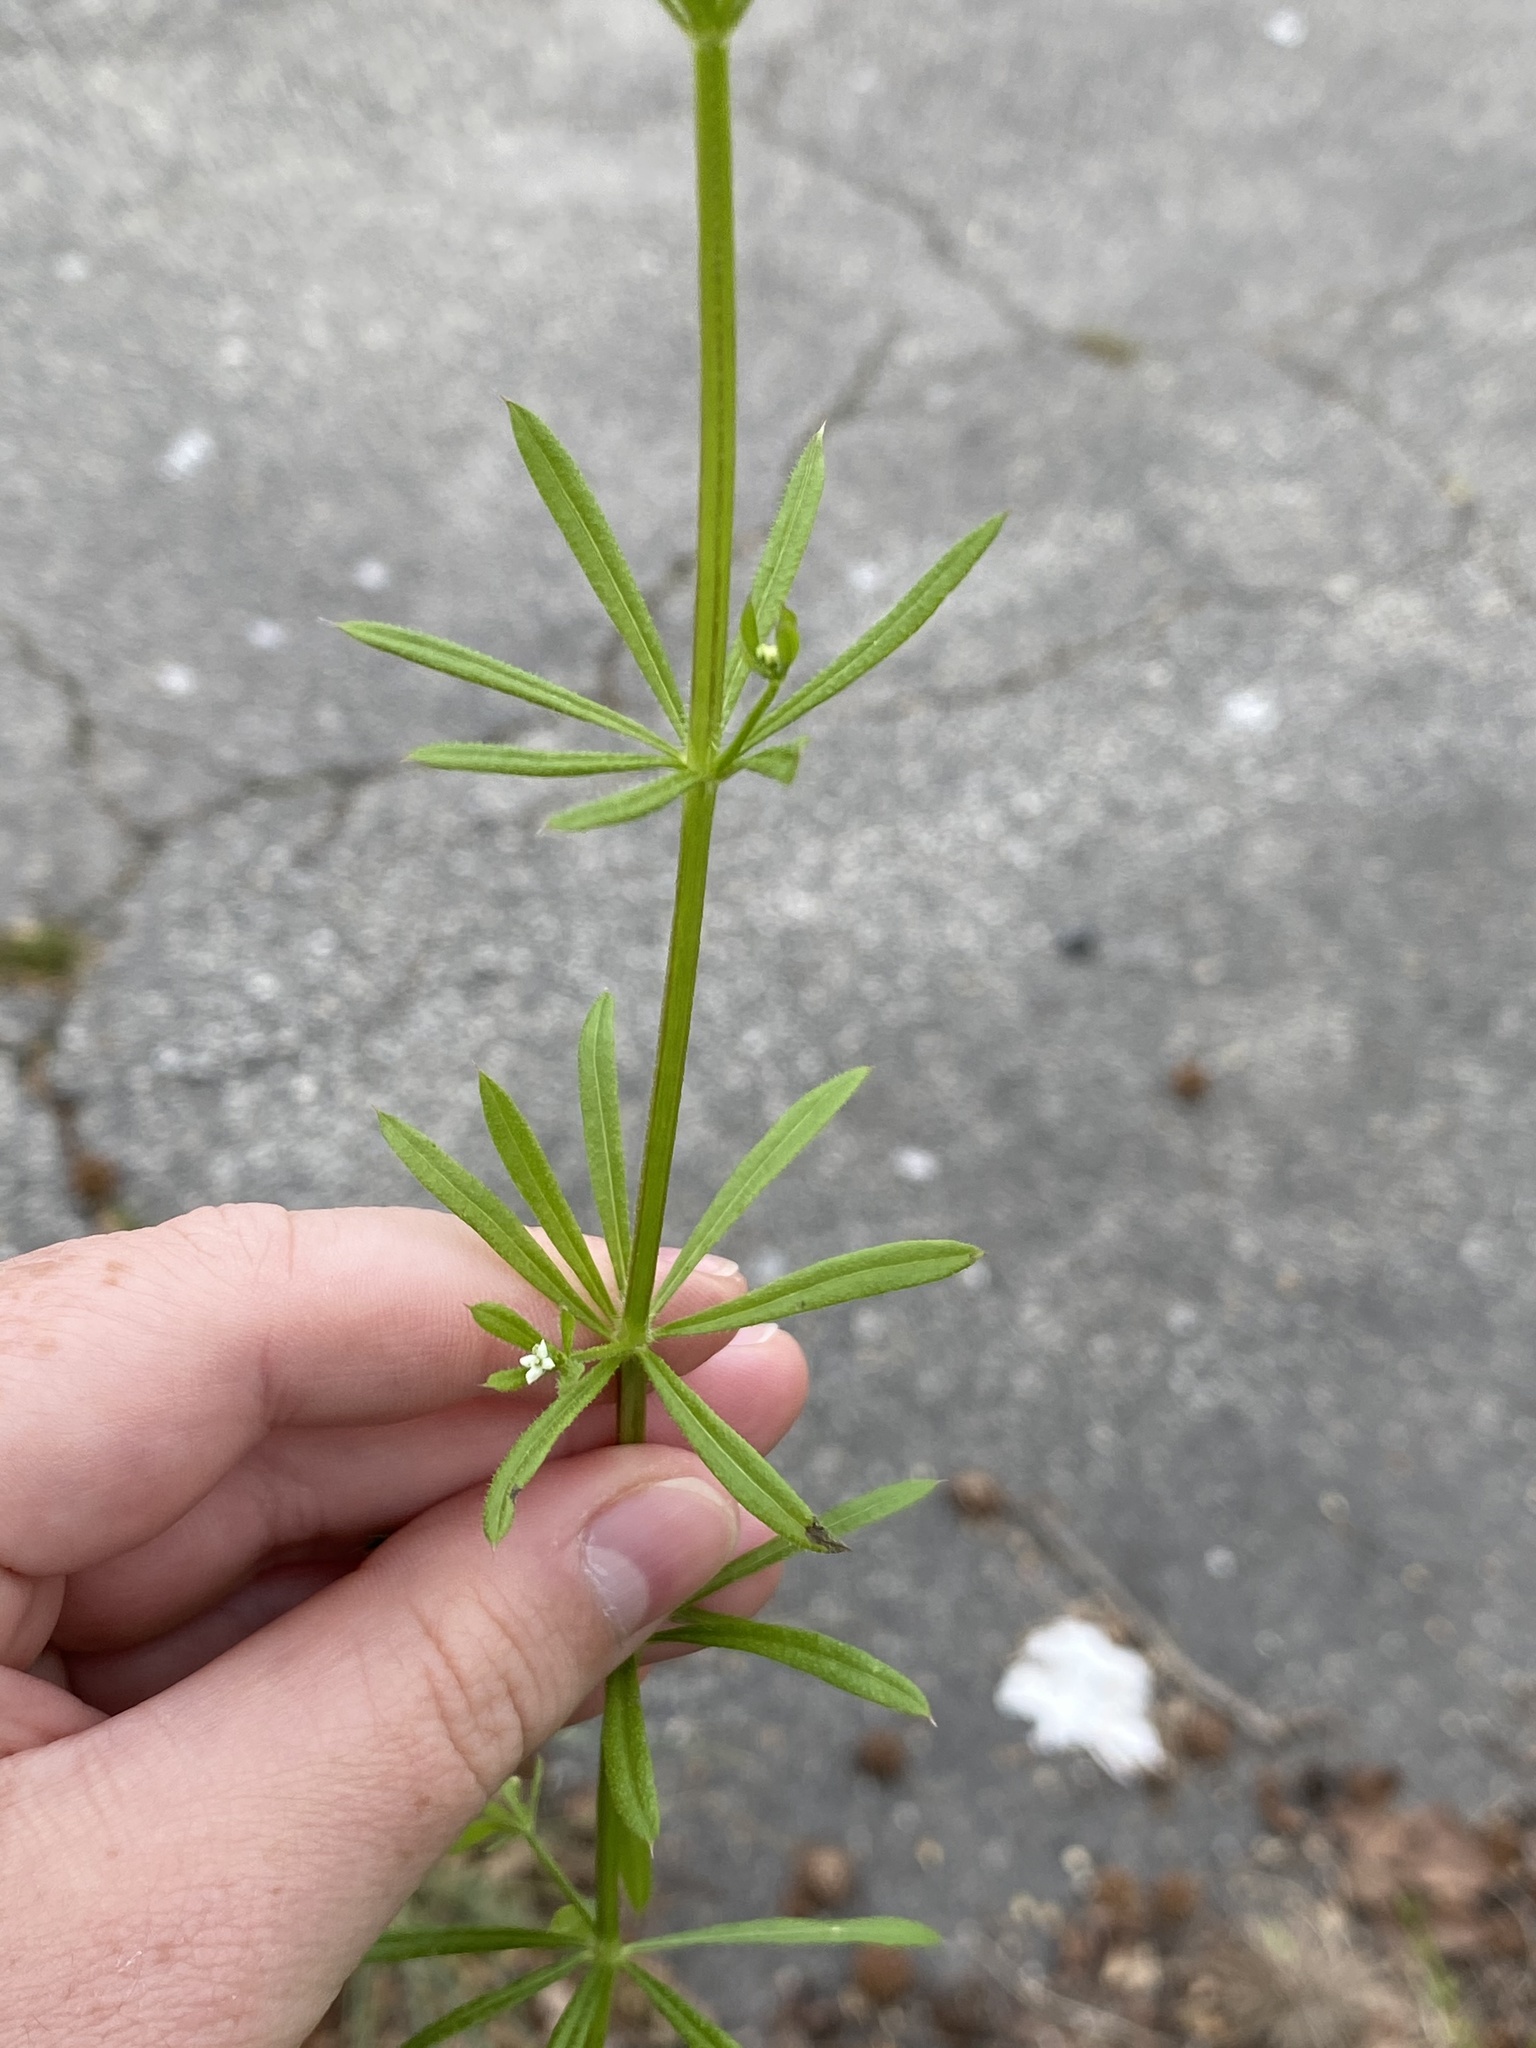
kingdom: Plantae
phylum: Tracheophyta
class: Magnoliopsida
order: Gentianales
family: Rubiaceae
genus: Galium
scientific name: Galium aparine
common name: Cleavers
